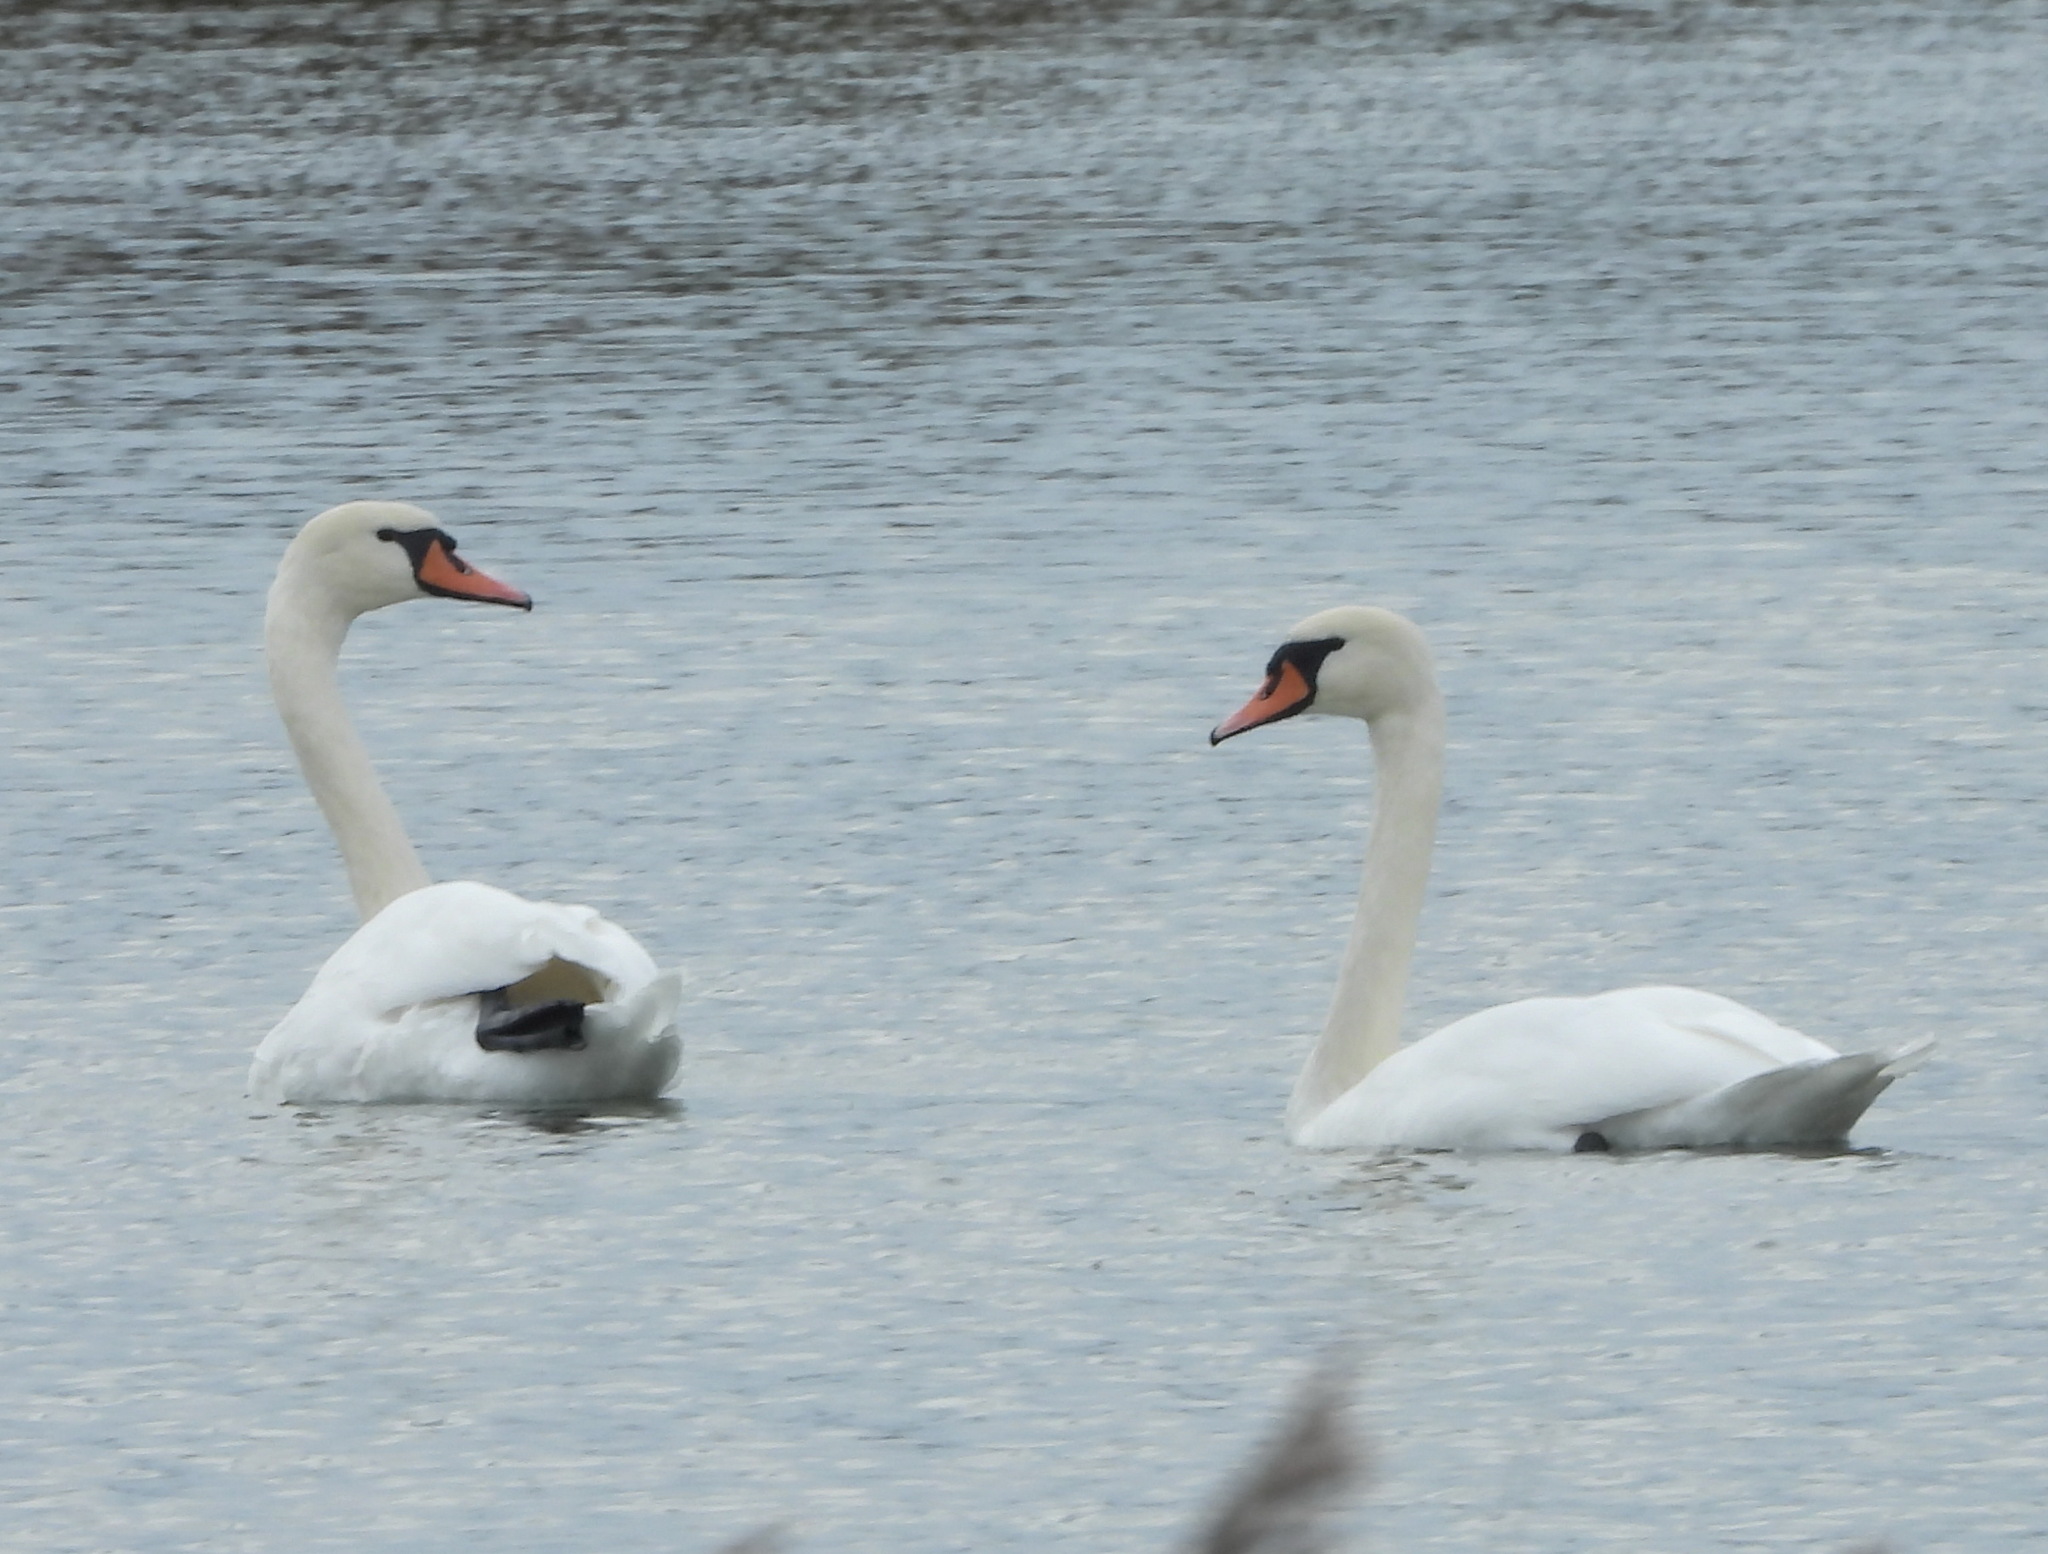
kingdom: Animalia
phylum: Chordata
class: Aves
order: Anseriformes
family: Anatidae
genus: Cygnus
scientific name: Cygnus olor
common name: Mute swan
